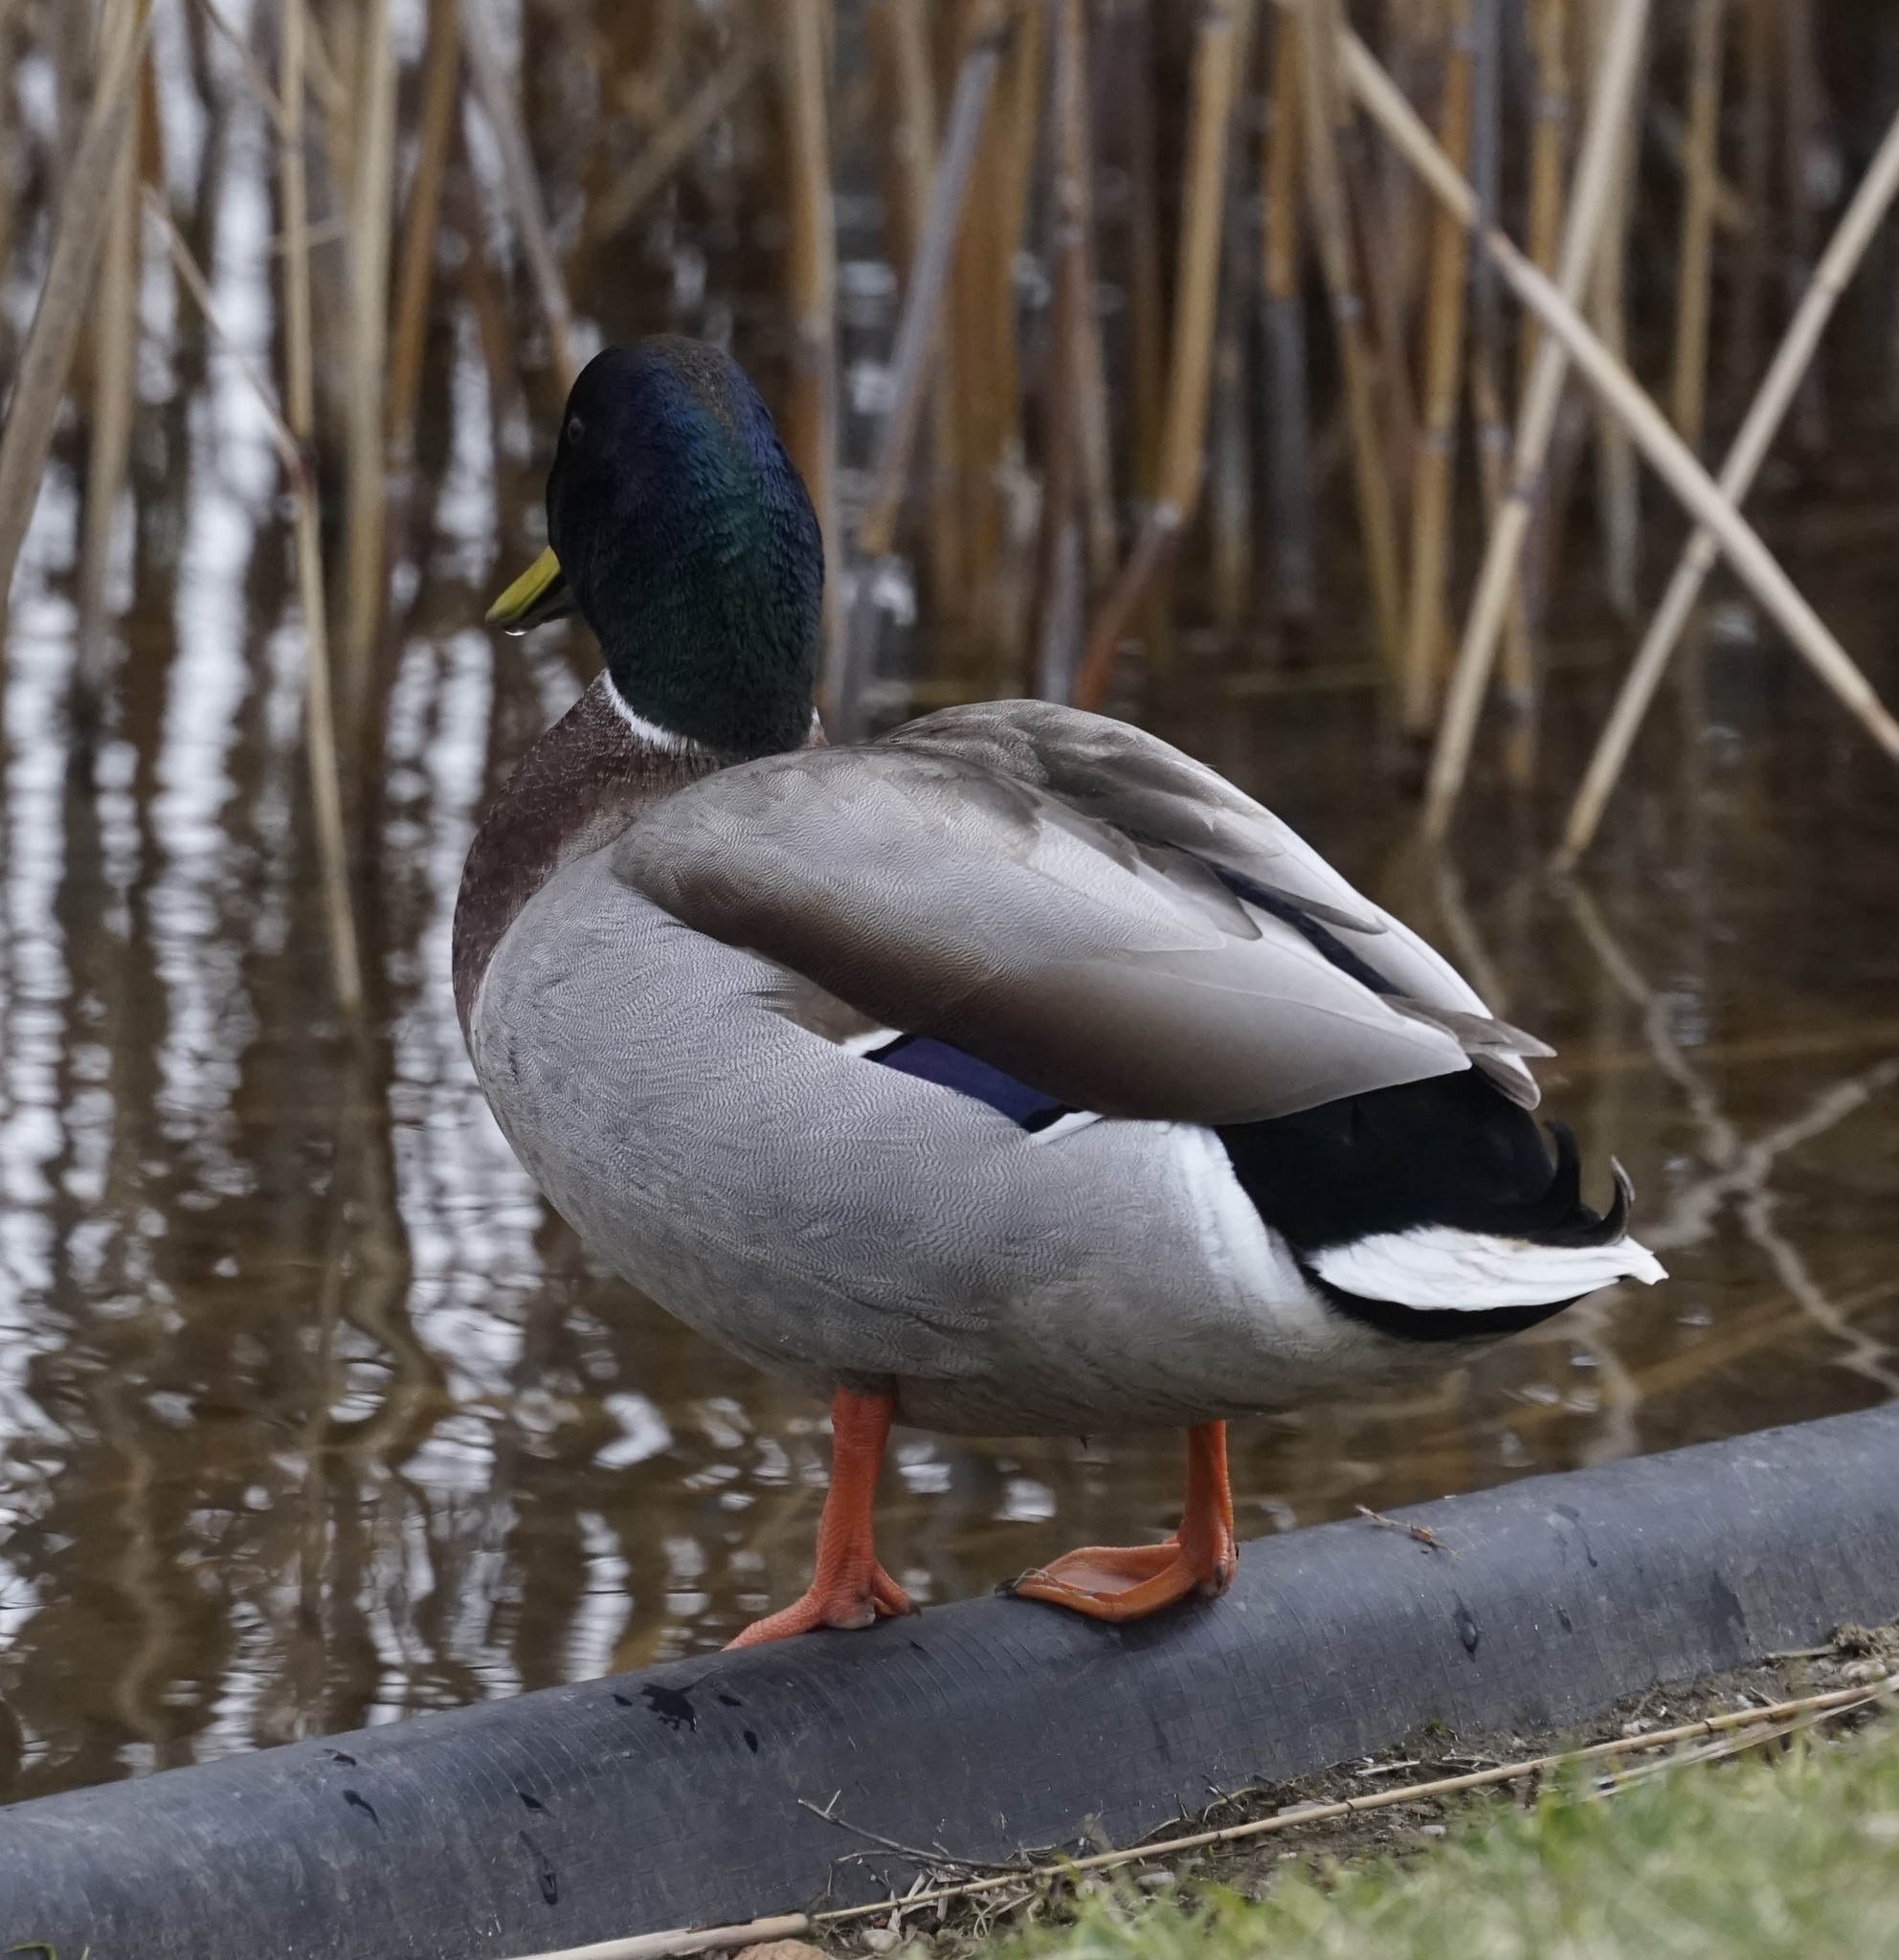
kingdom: Animalia
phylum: Chordata
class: Aves
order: Anseriformes
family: Anatidae
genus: Anas
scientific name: Anas platyrhynchos
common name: Mallard
